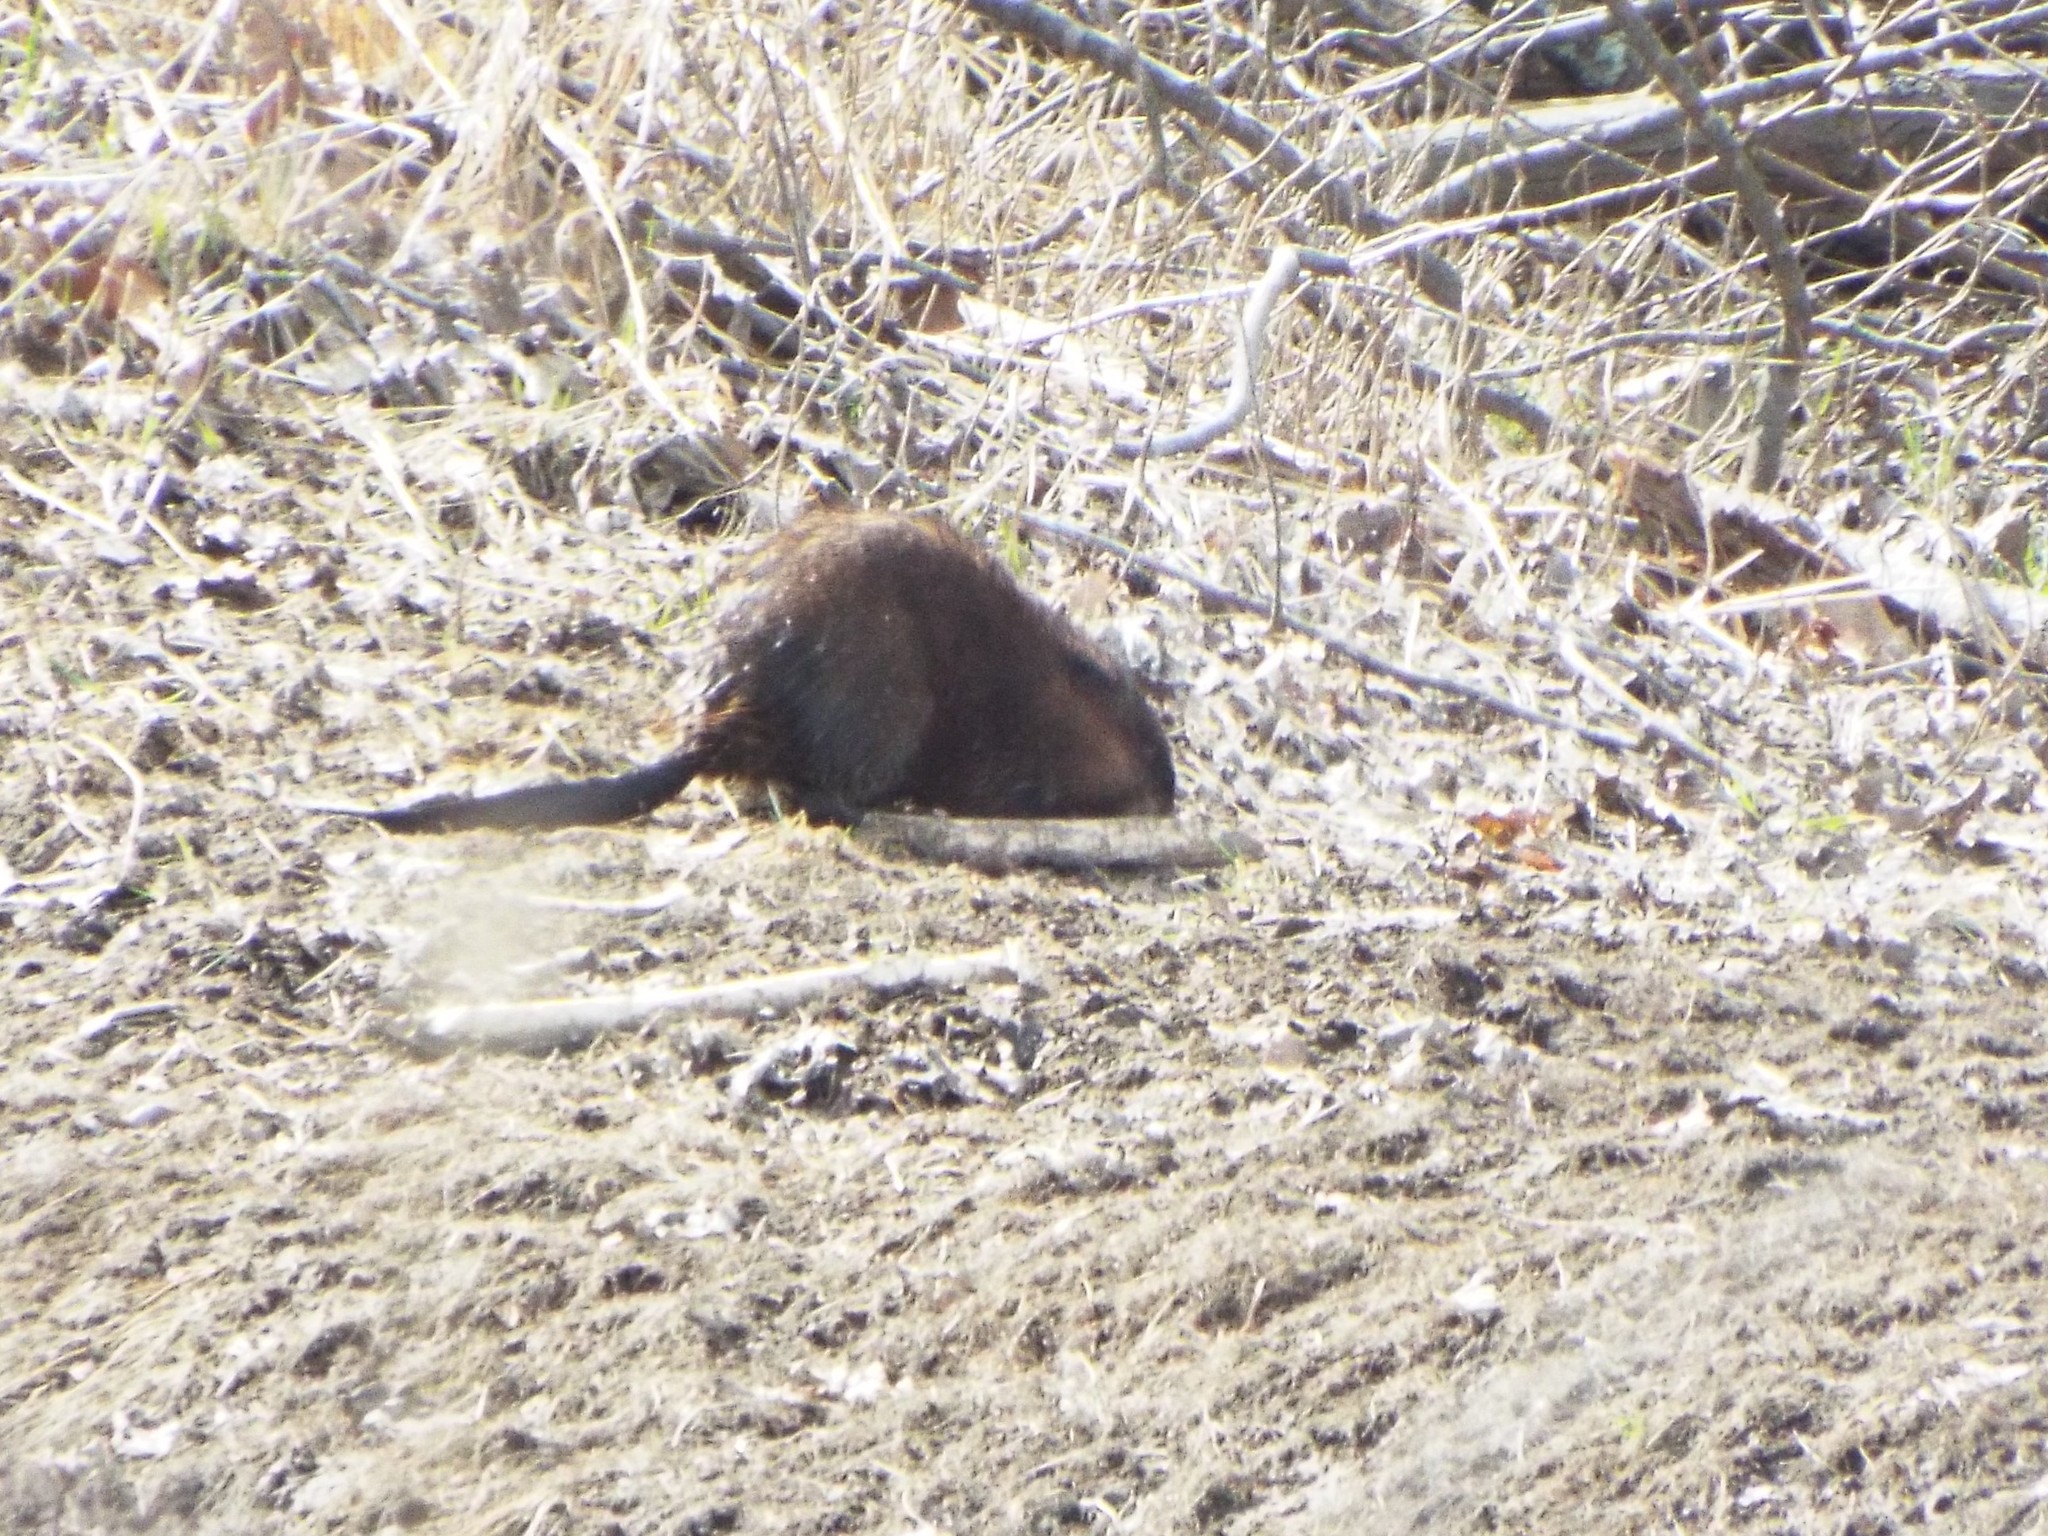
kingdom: Animalia
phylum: Chordata
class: Mammalia
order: Rodentia
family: Cricetidae
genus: Ondatra
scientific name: Ondatra zibethicus
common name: Muskrat
